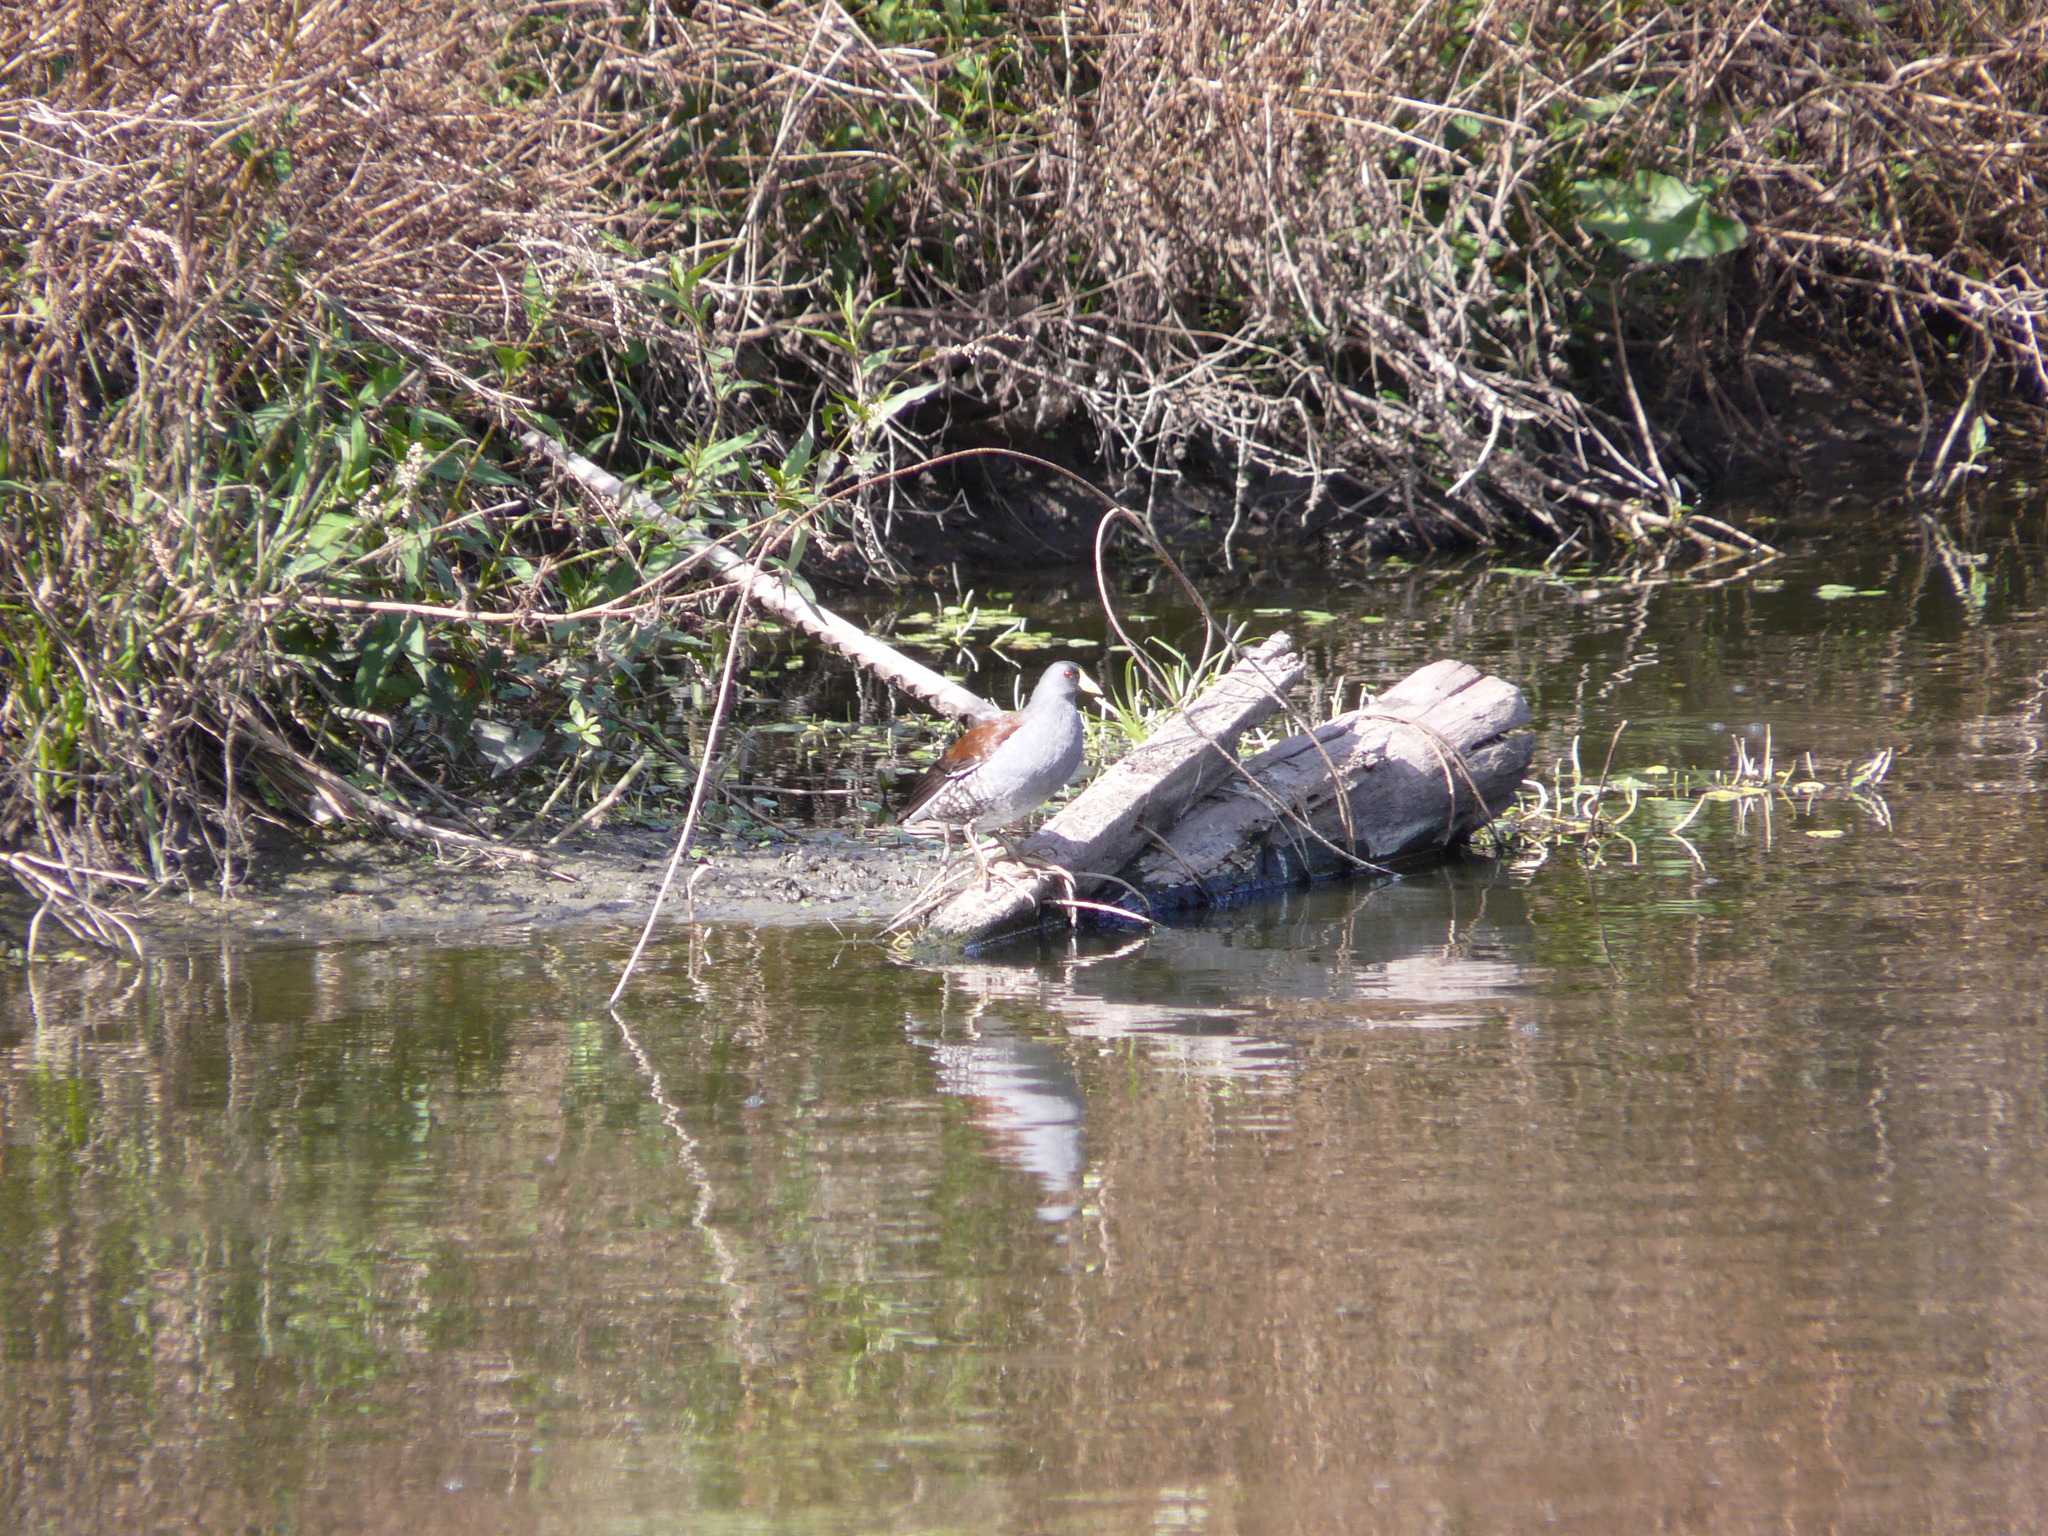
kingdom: Animalia
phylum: Chordata
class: Aves
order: Gruiformes
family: Rallidae
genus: Gallinula
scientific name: Gallinula melanops
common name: Spot-flanked gallinule
